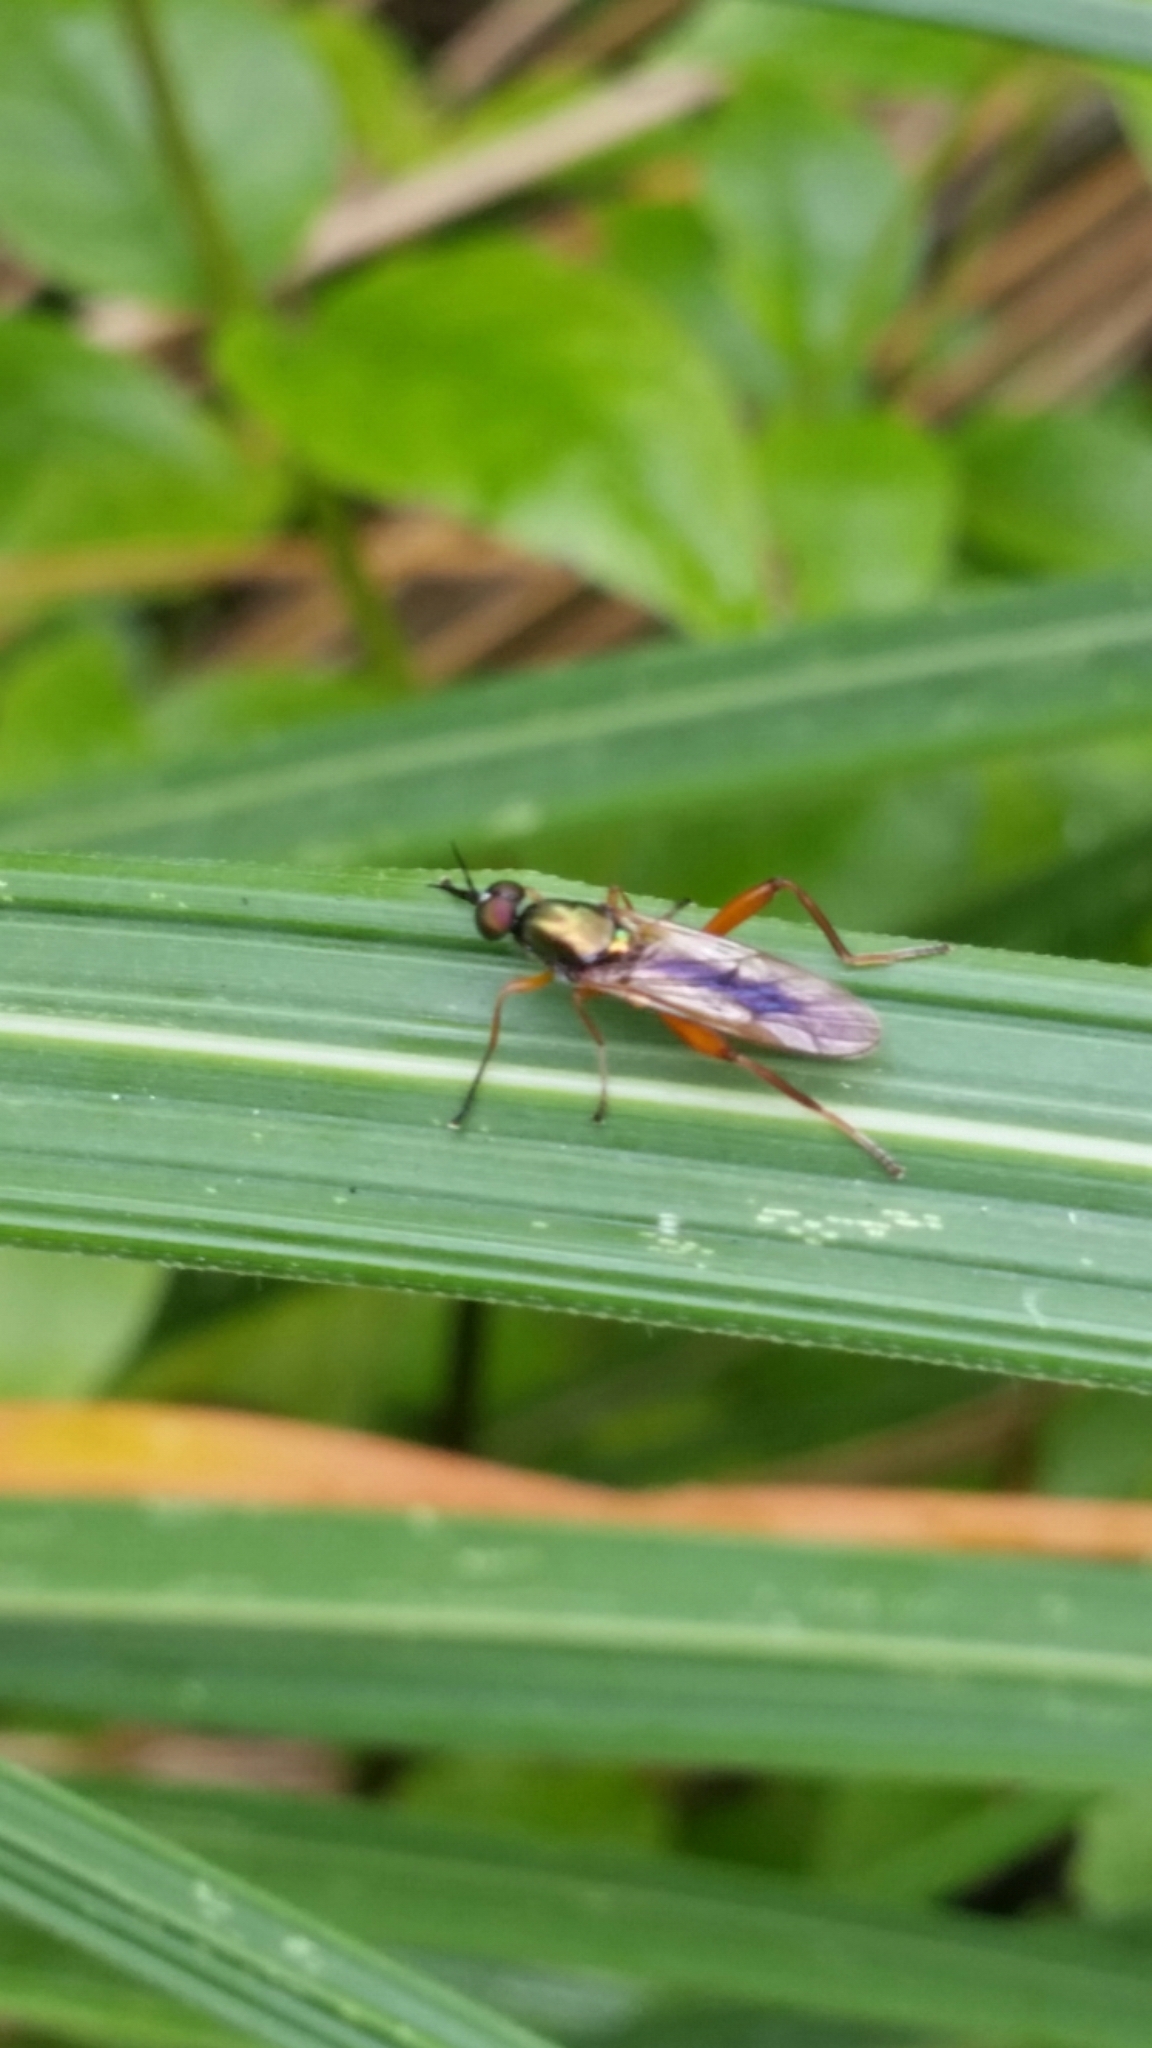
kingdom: Animalia
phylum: Arthropoda
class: Insecta
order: Diptera
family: Stratiomyidae
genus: Benhamyia
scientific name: Benhamyia apicalis
